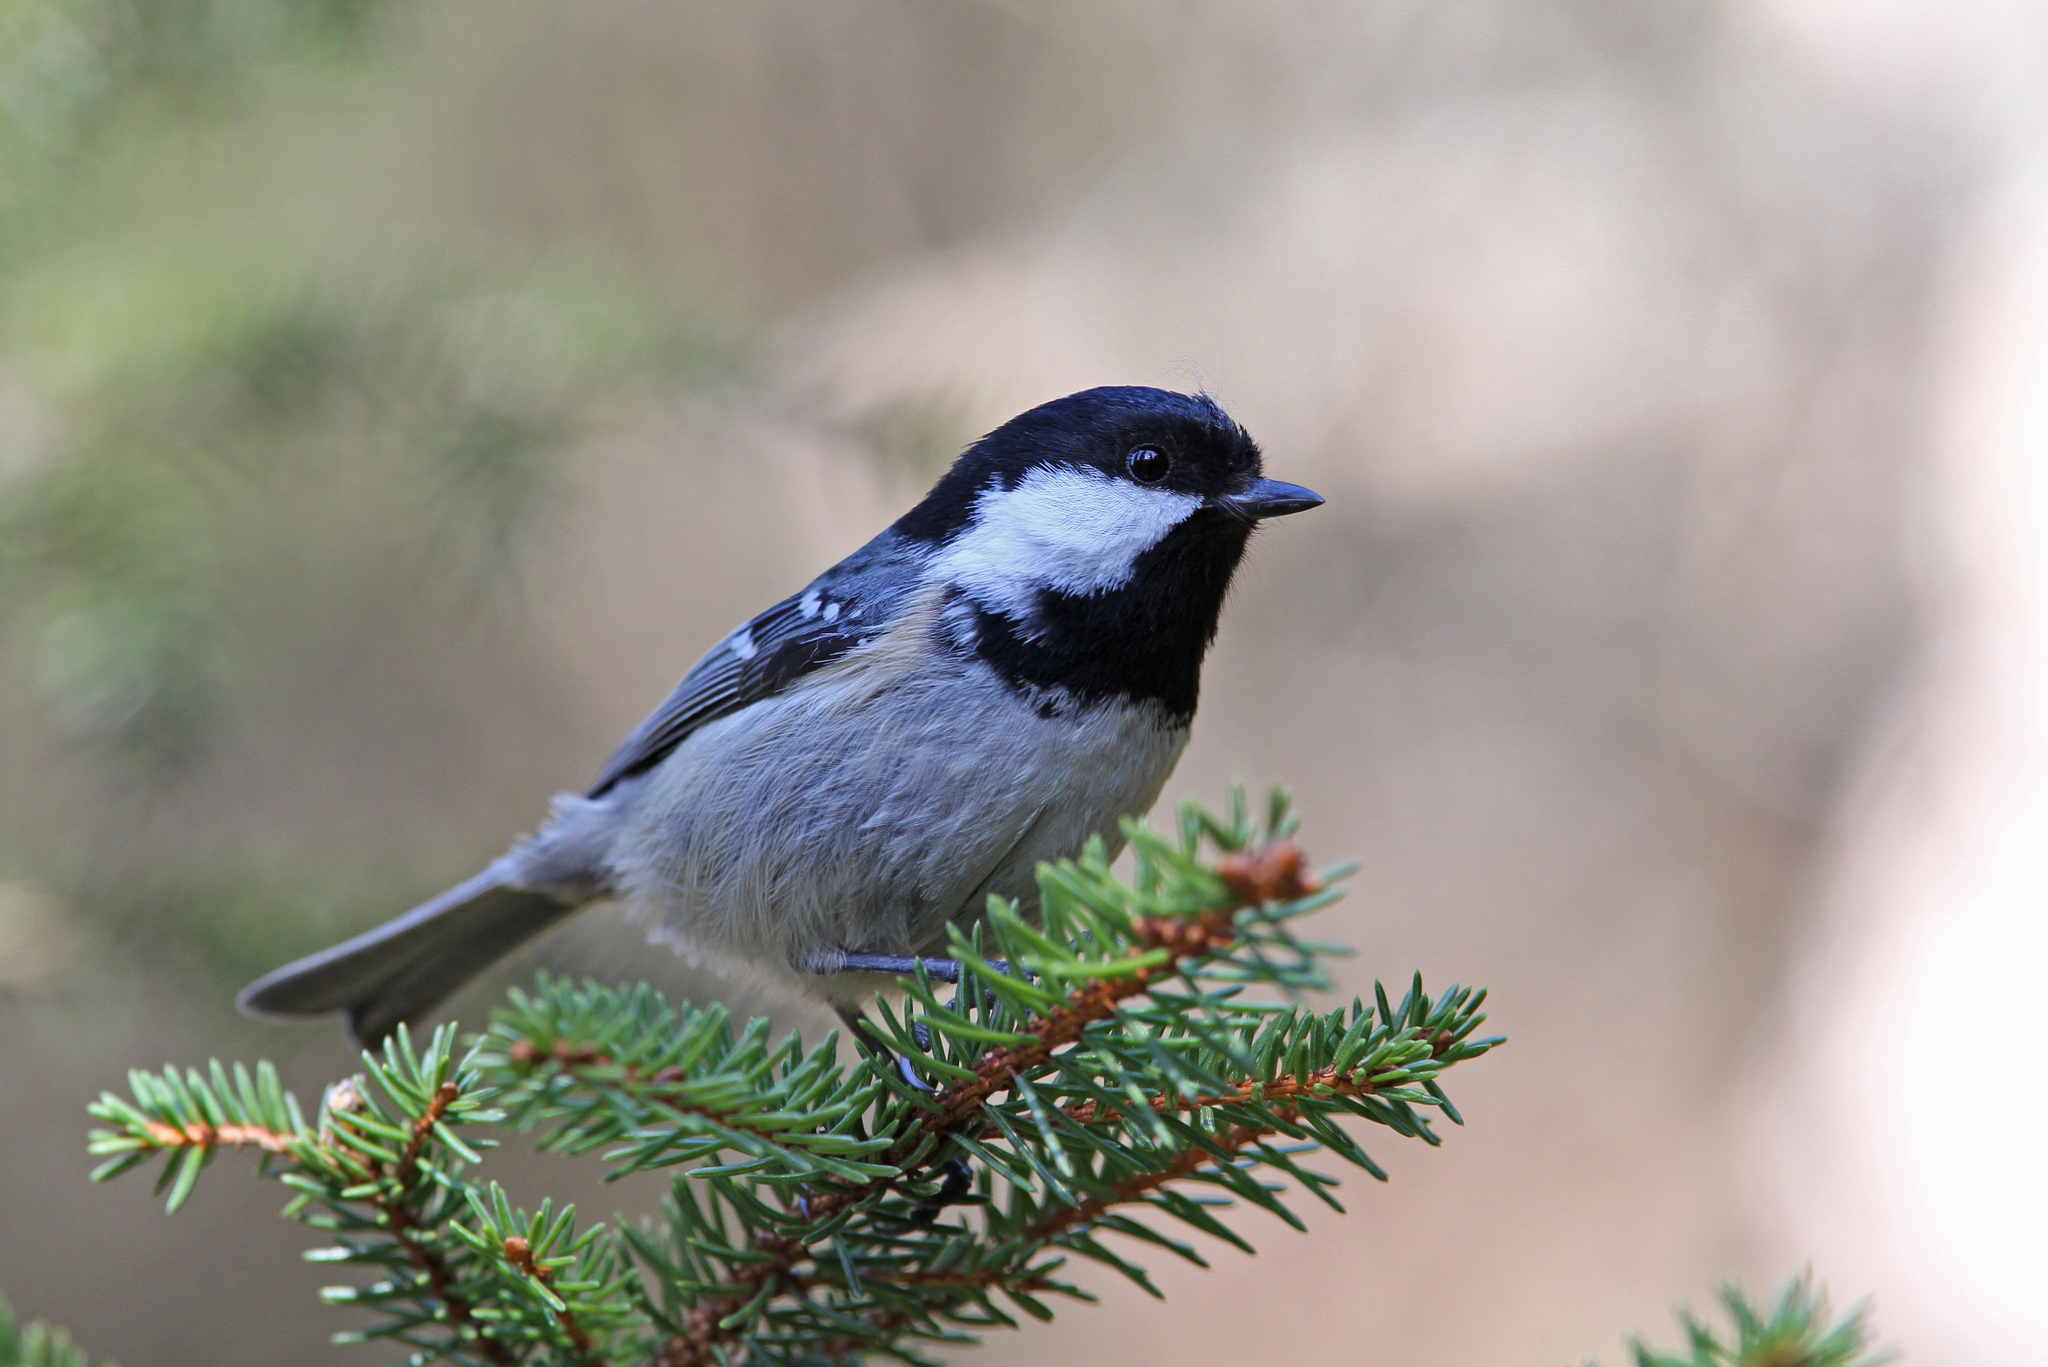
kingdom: Animalia
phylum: Chordata
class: Aves
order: Passeriformes
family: Paridae
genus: Periparus
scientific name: Periparus ater
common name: Coal tit
